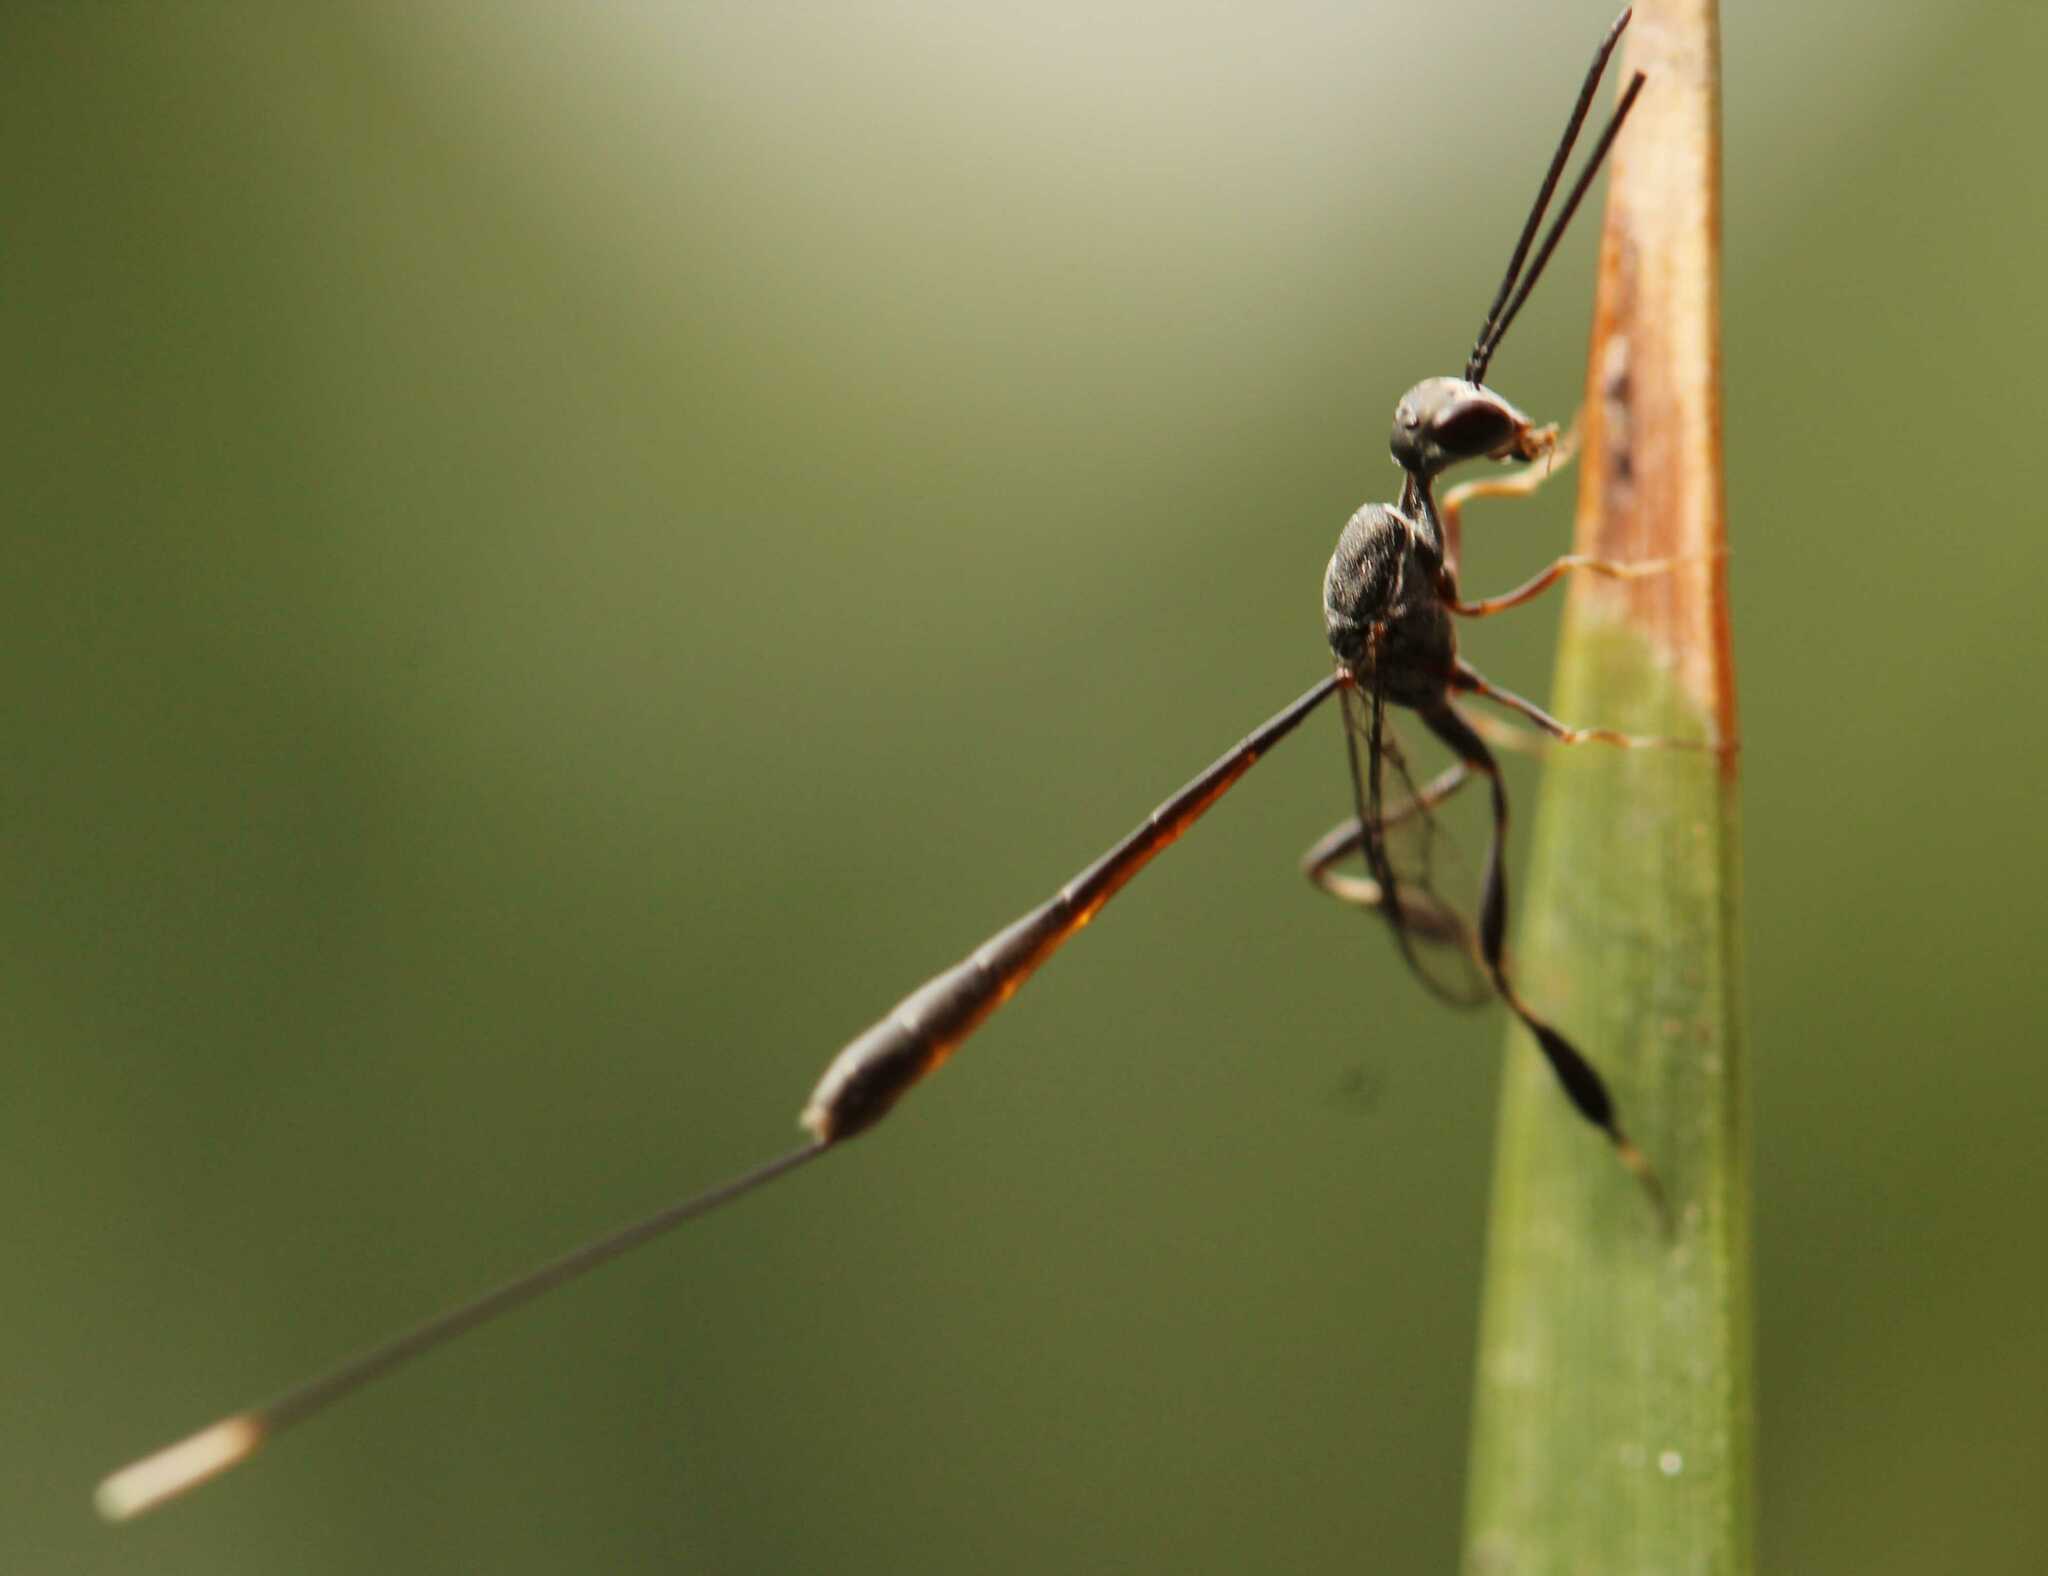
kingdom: Animalia
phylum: Arthropoda
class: Insecta
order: Hymenoptera
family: Gasteruptiidae
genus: Gasteruption
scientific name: Gasteruption
